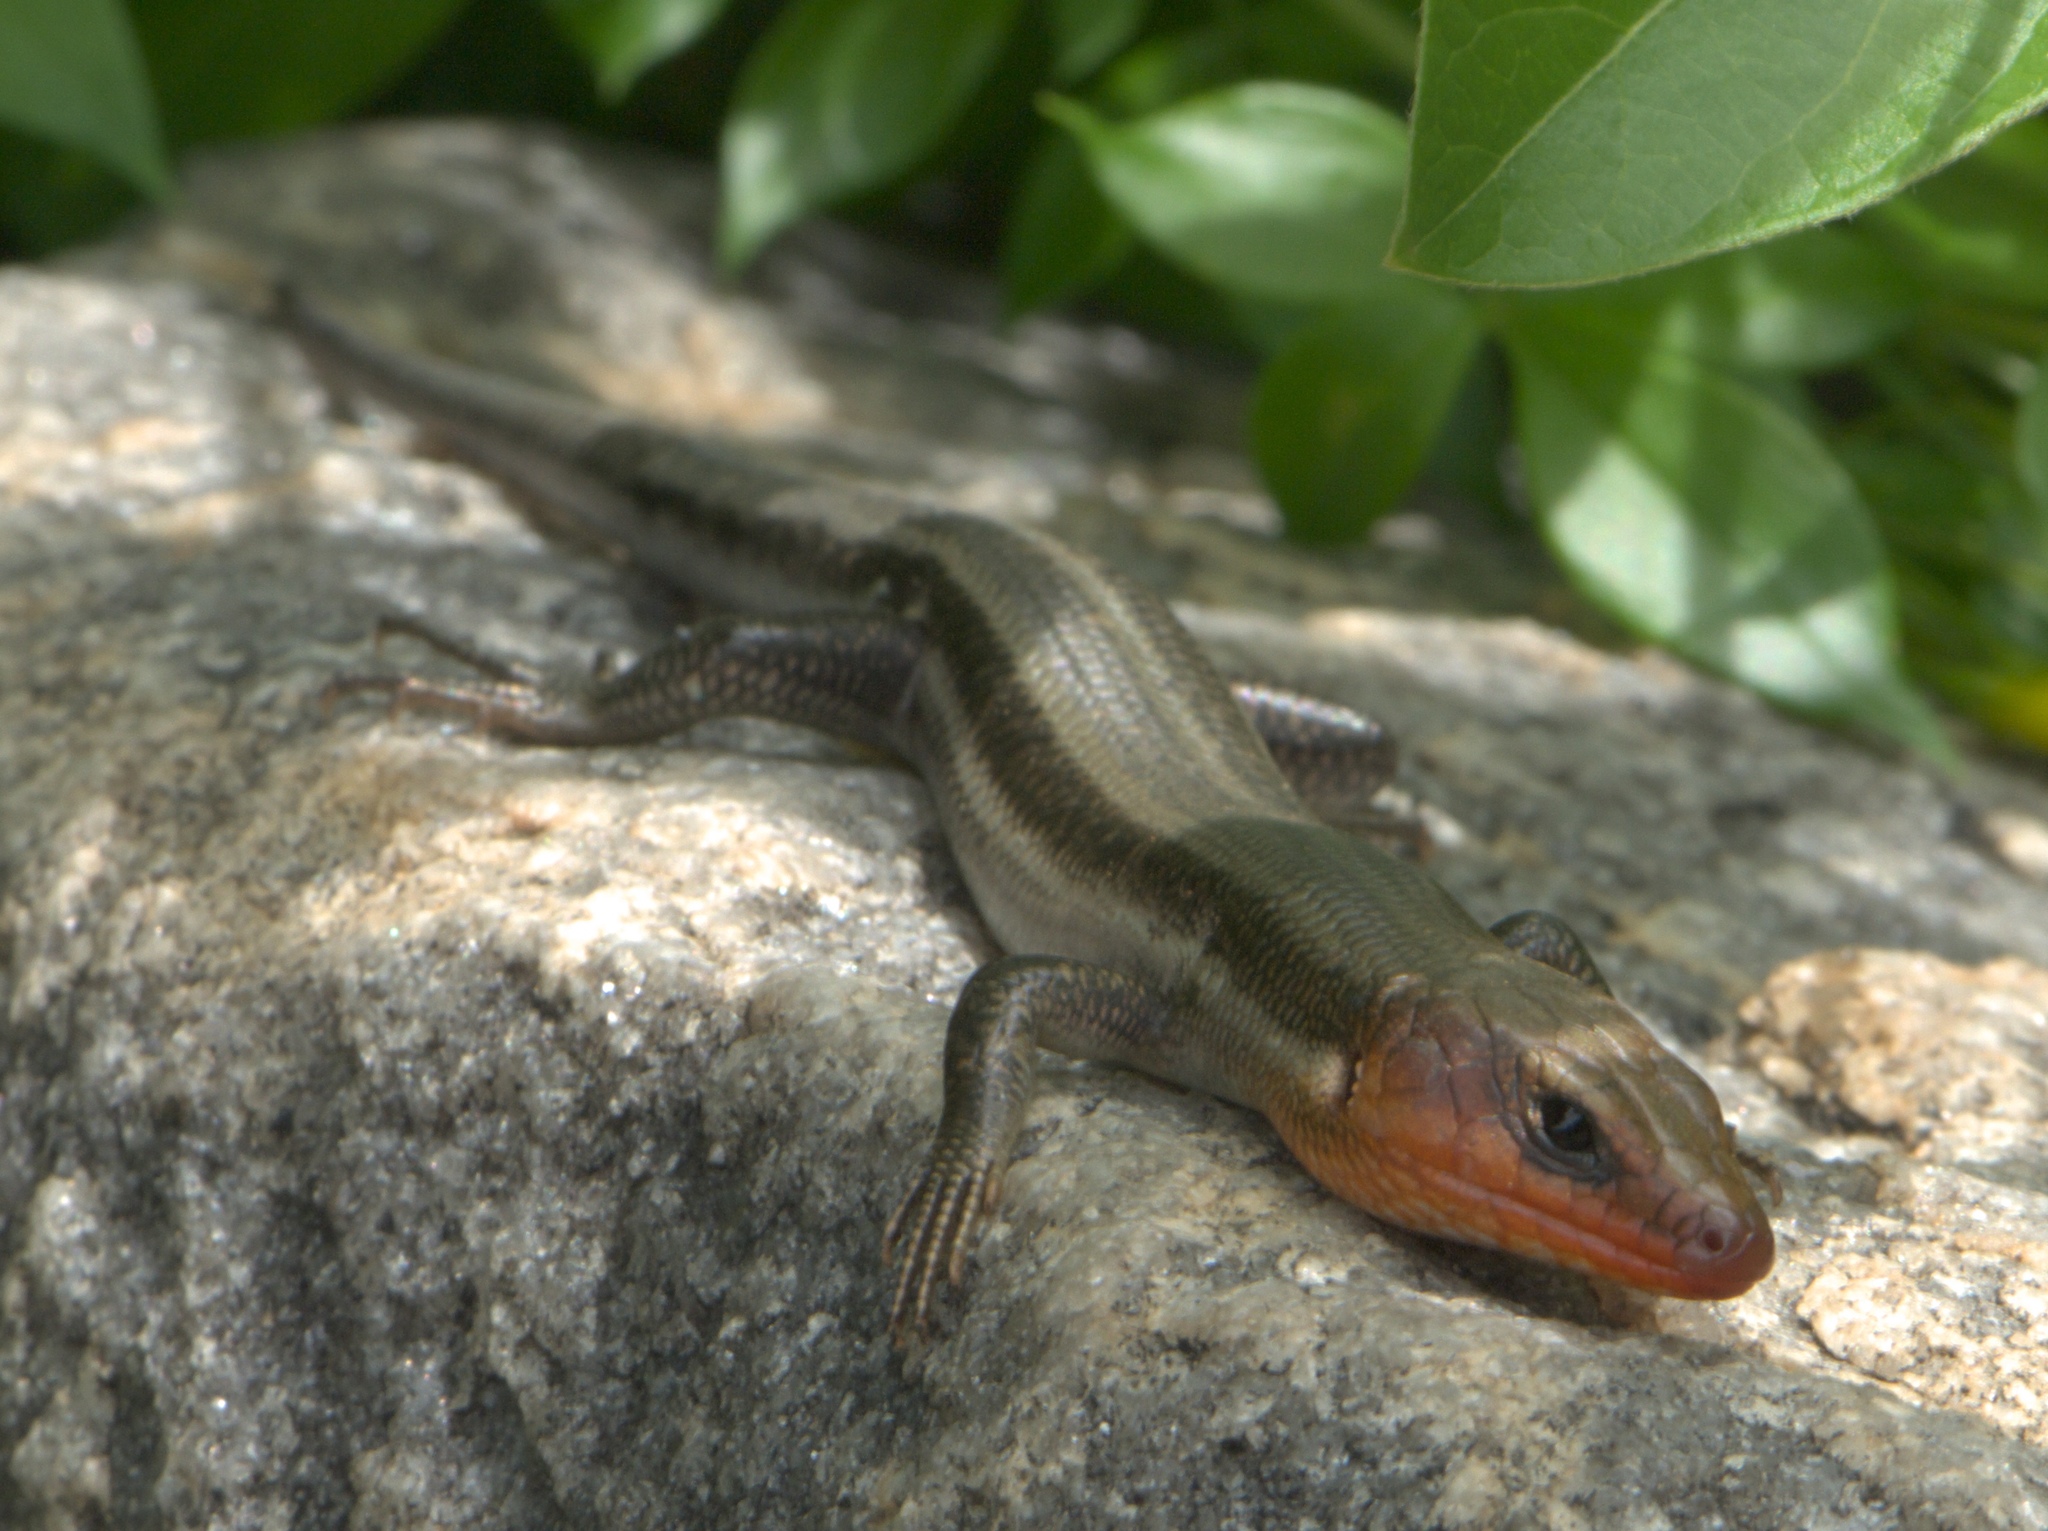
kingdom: Animalia
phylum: Chordata
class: Squamata
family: Scincidae
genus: Plestiodon
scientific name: Plestiodon fasciatus
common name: Five-lined skink
